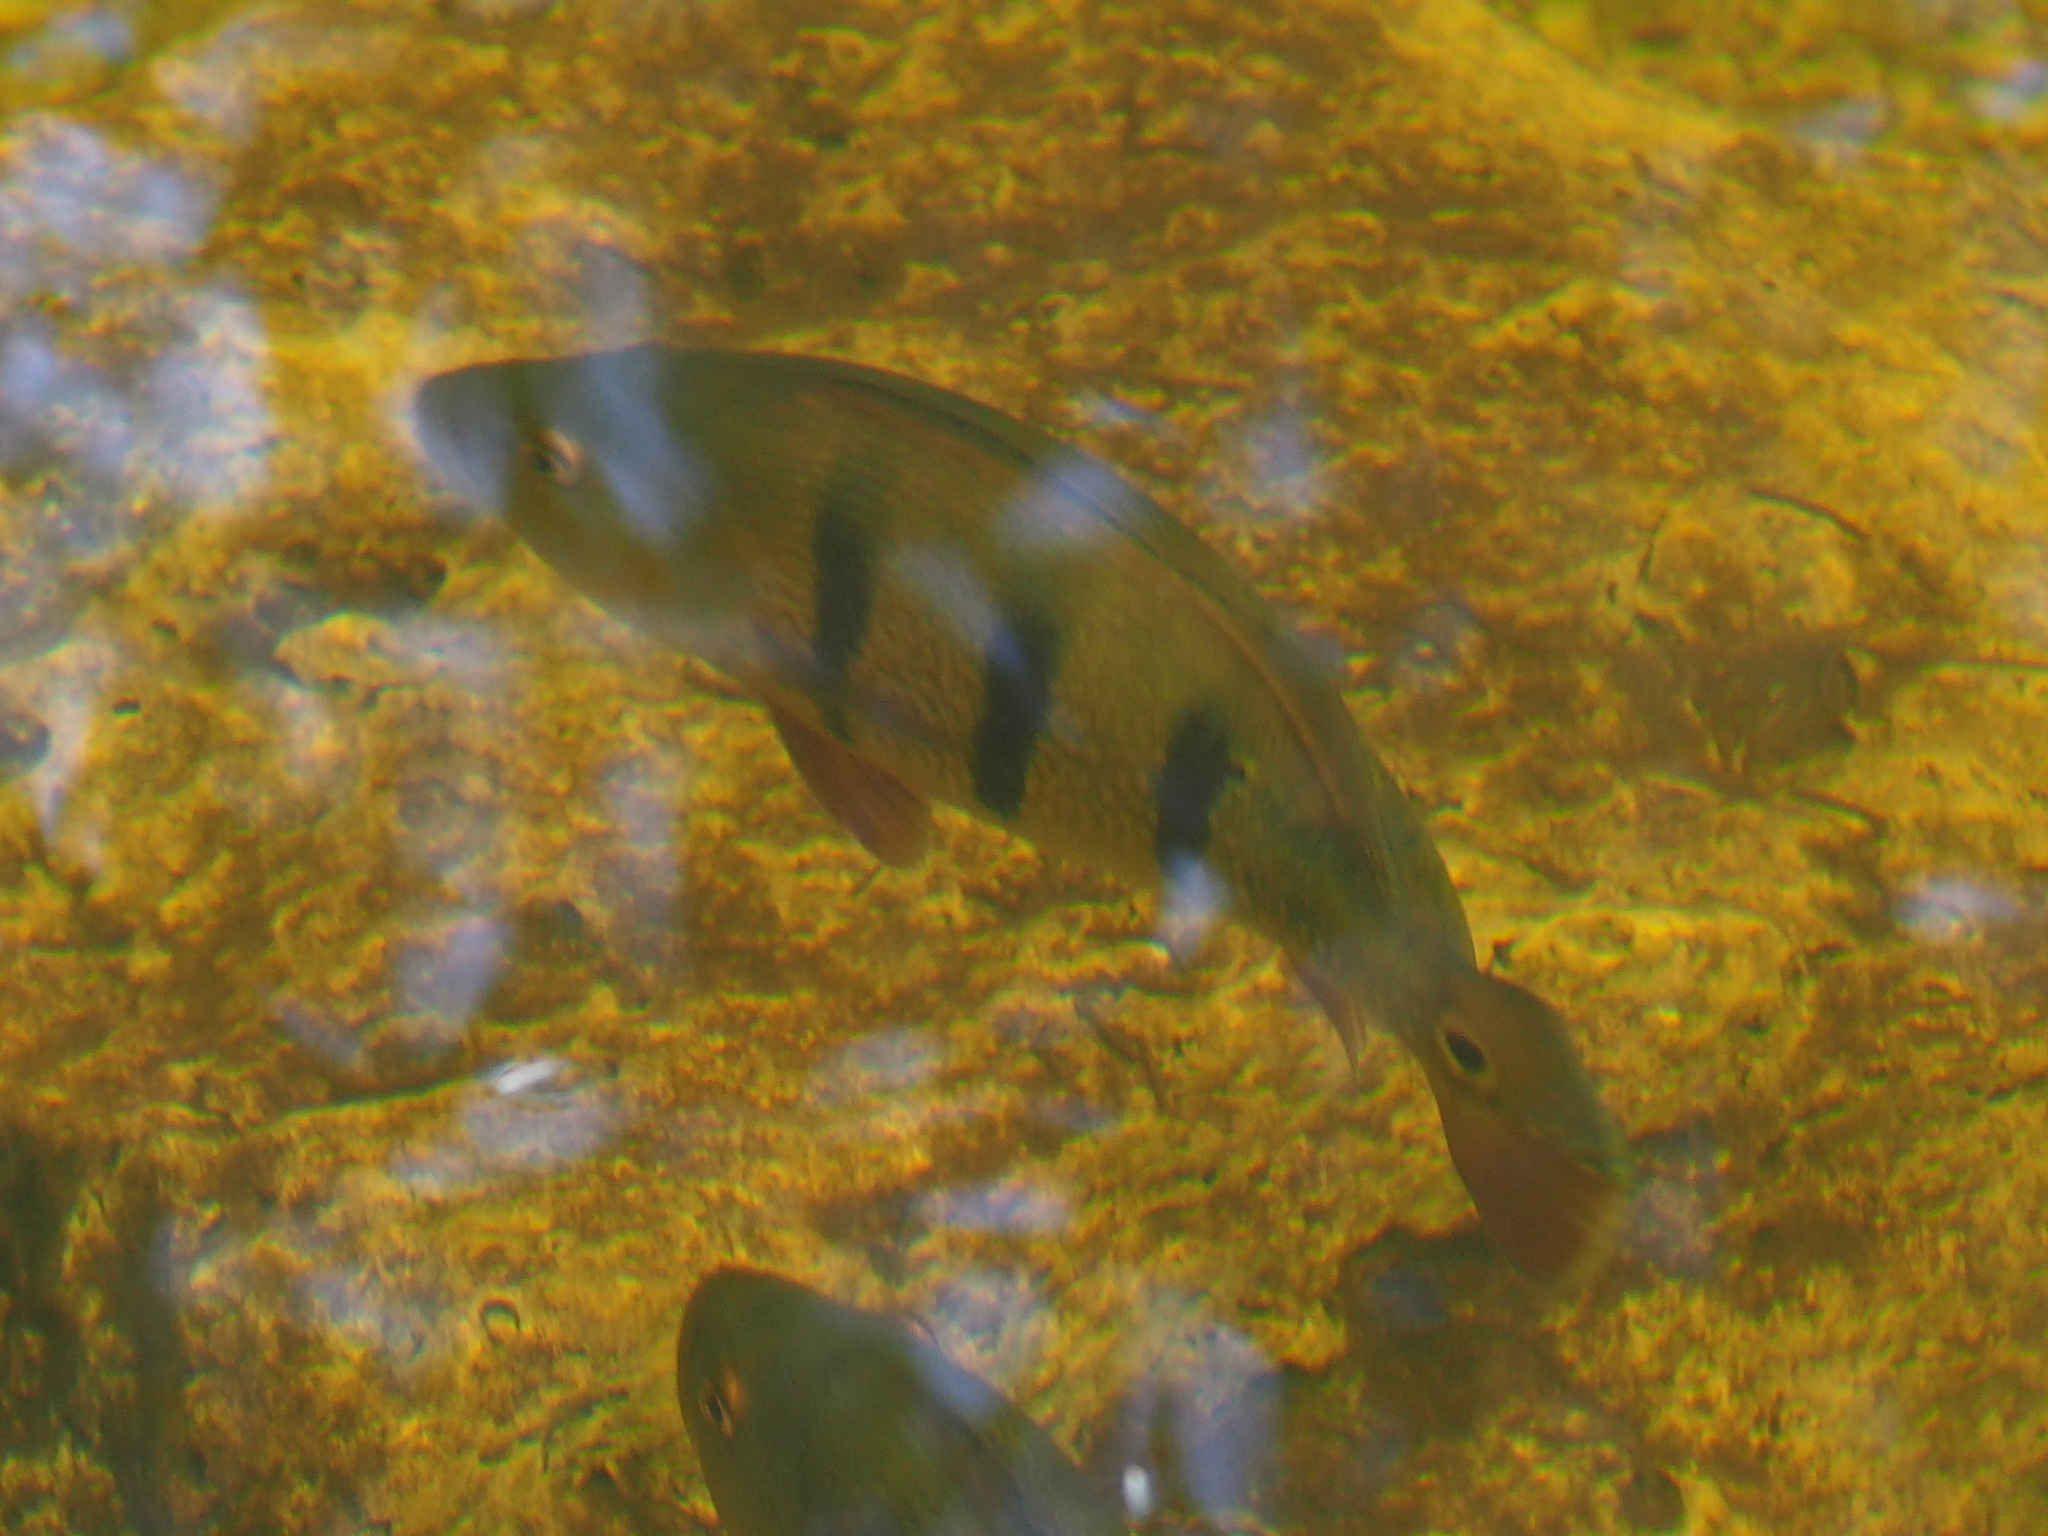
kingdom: Animalia
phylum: Chordata
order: Perciformes
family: Cichlidae
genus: Cichla
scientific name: Cichla ocellaris
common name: Peacock cichlid
